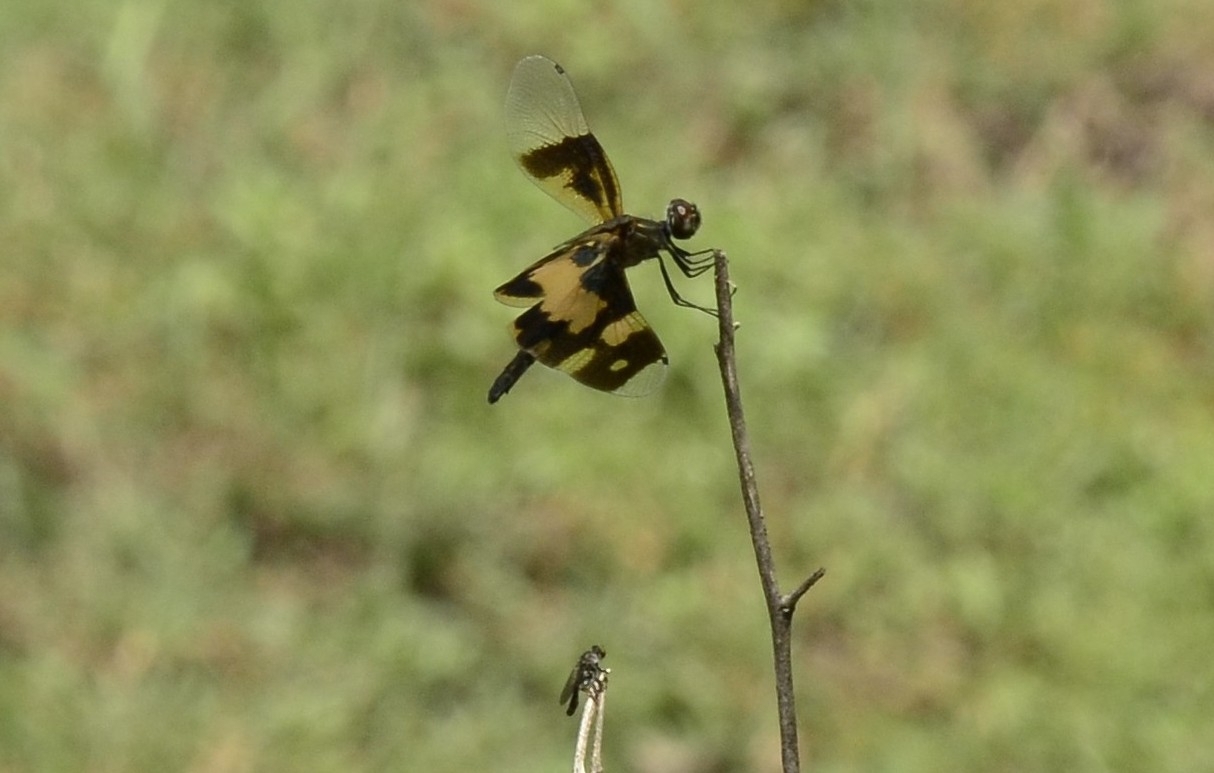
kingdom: Animalia
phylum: Arthropoda
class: Insecta
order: Odonata
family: Libellulidae
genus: Rhyothemis
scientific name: Rhyothemis variegata
